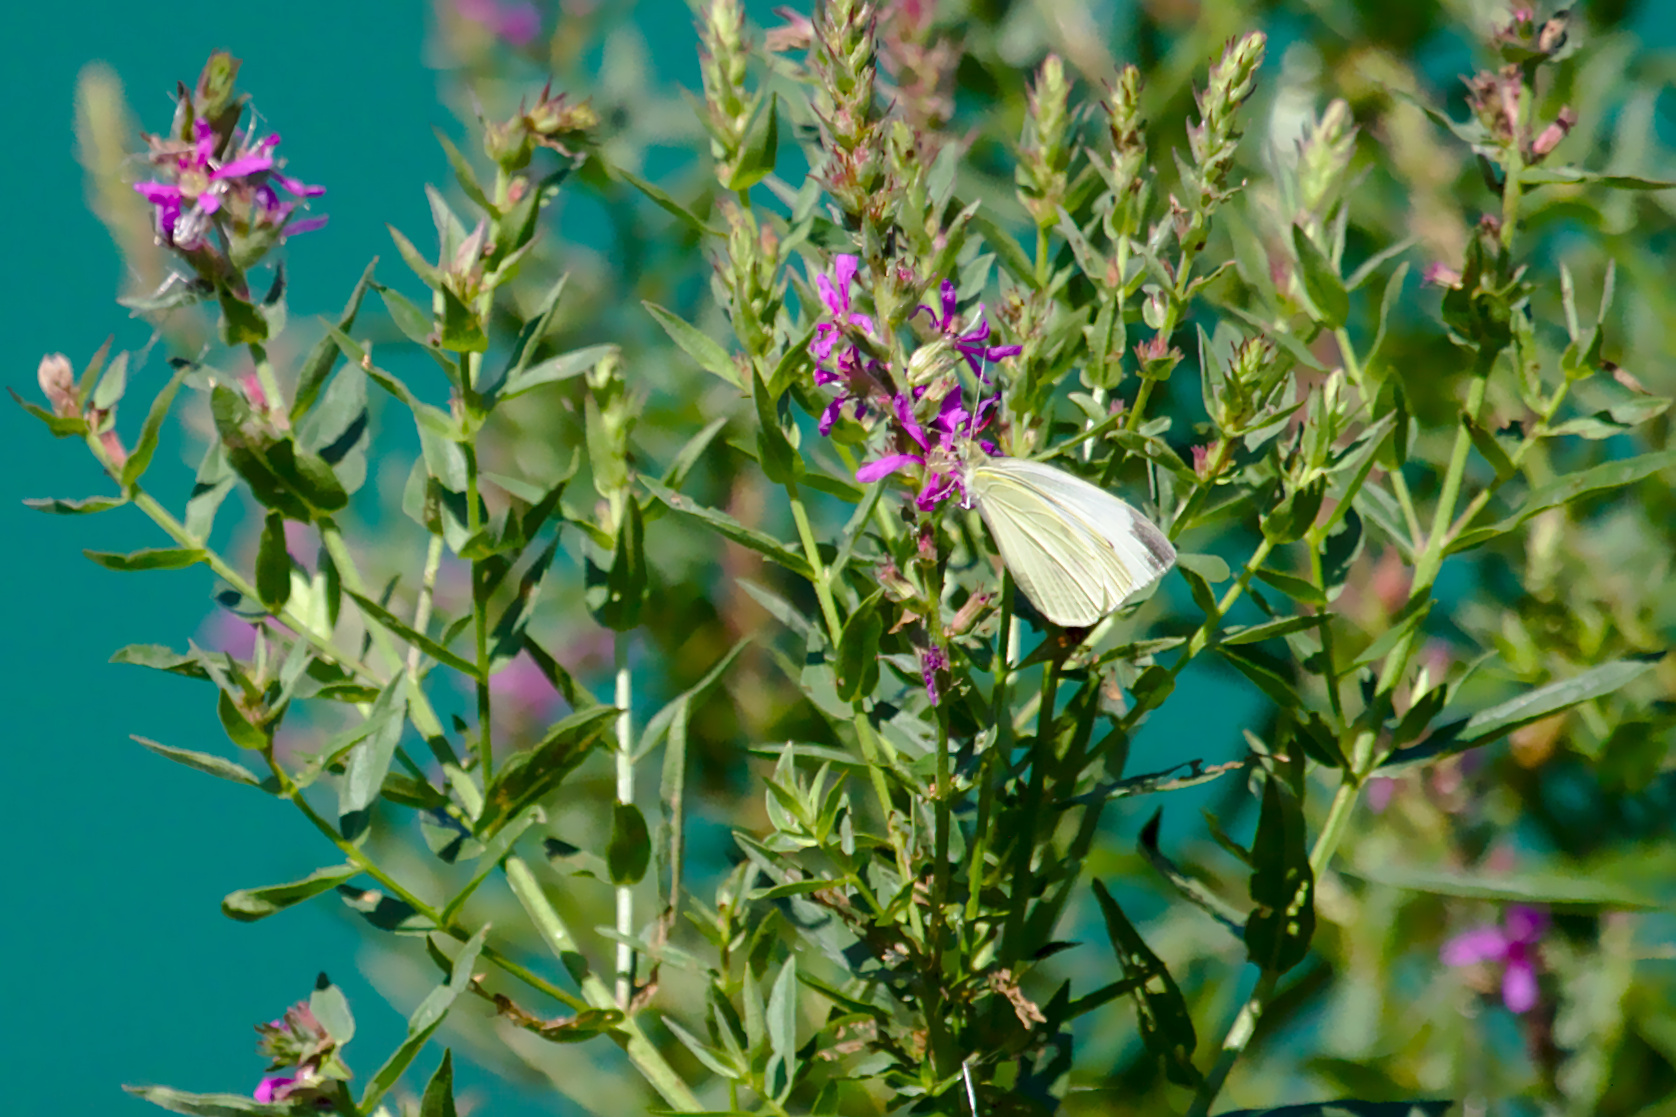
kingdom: Animalia
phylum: Arthropoda
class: Insecta
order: Lepidoptera
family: Pieridae
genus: Pieris
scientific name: Pieris rapae
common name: Small white
